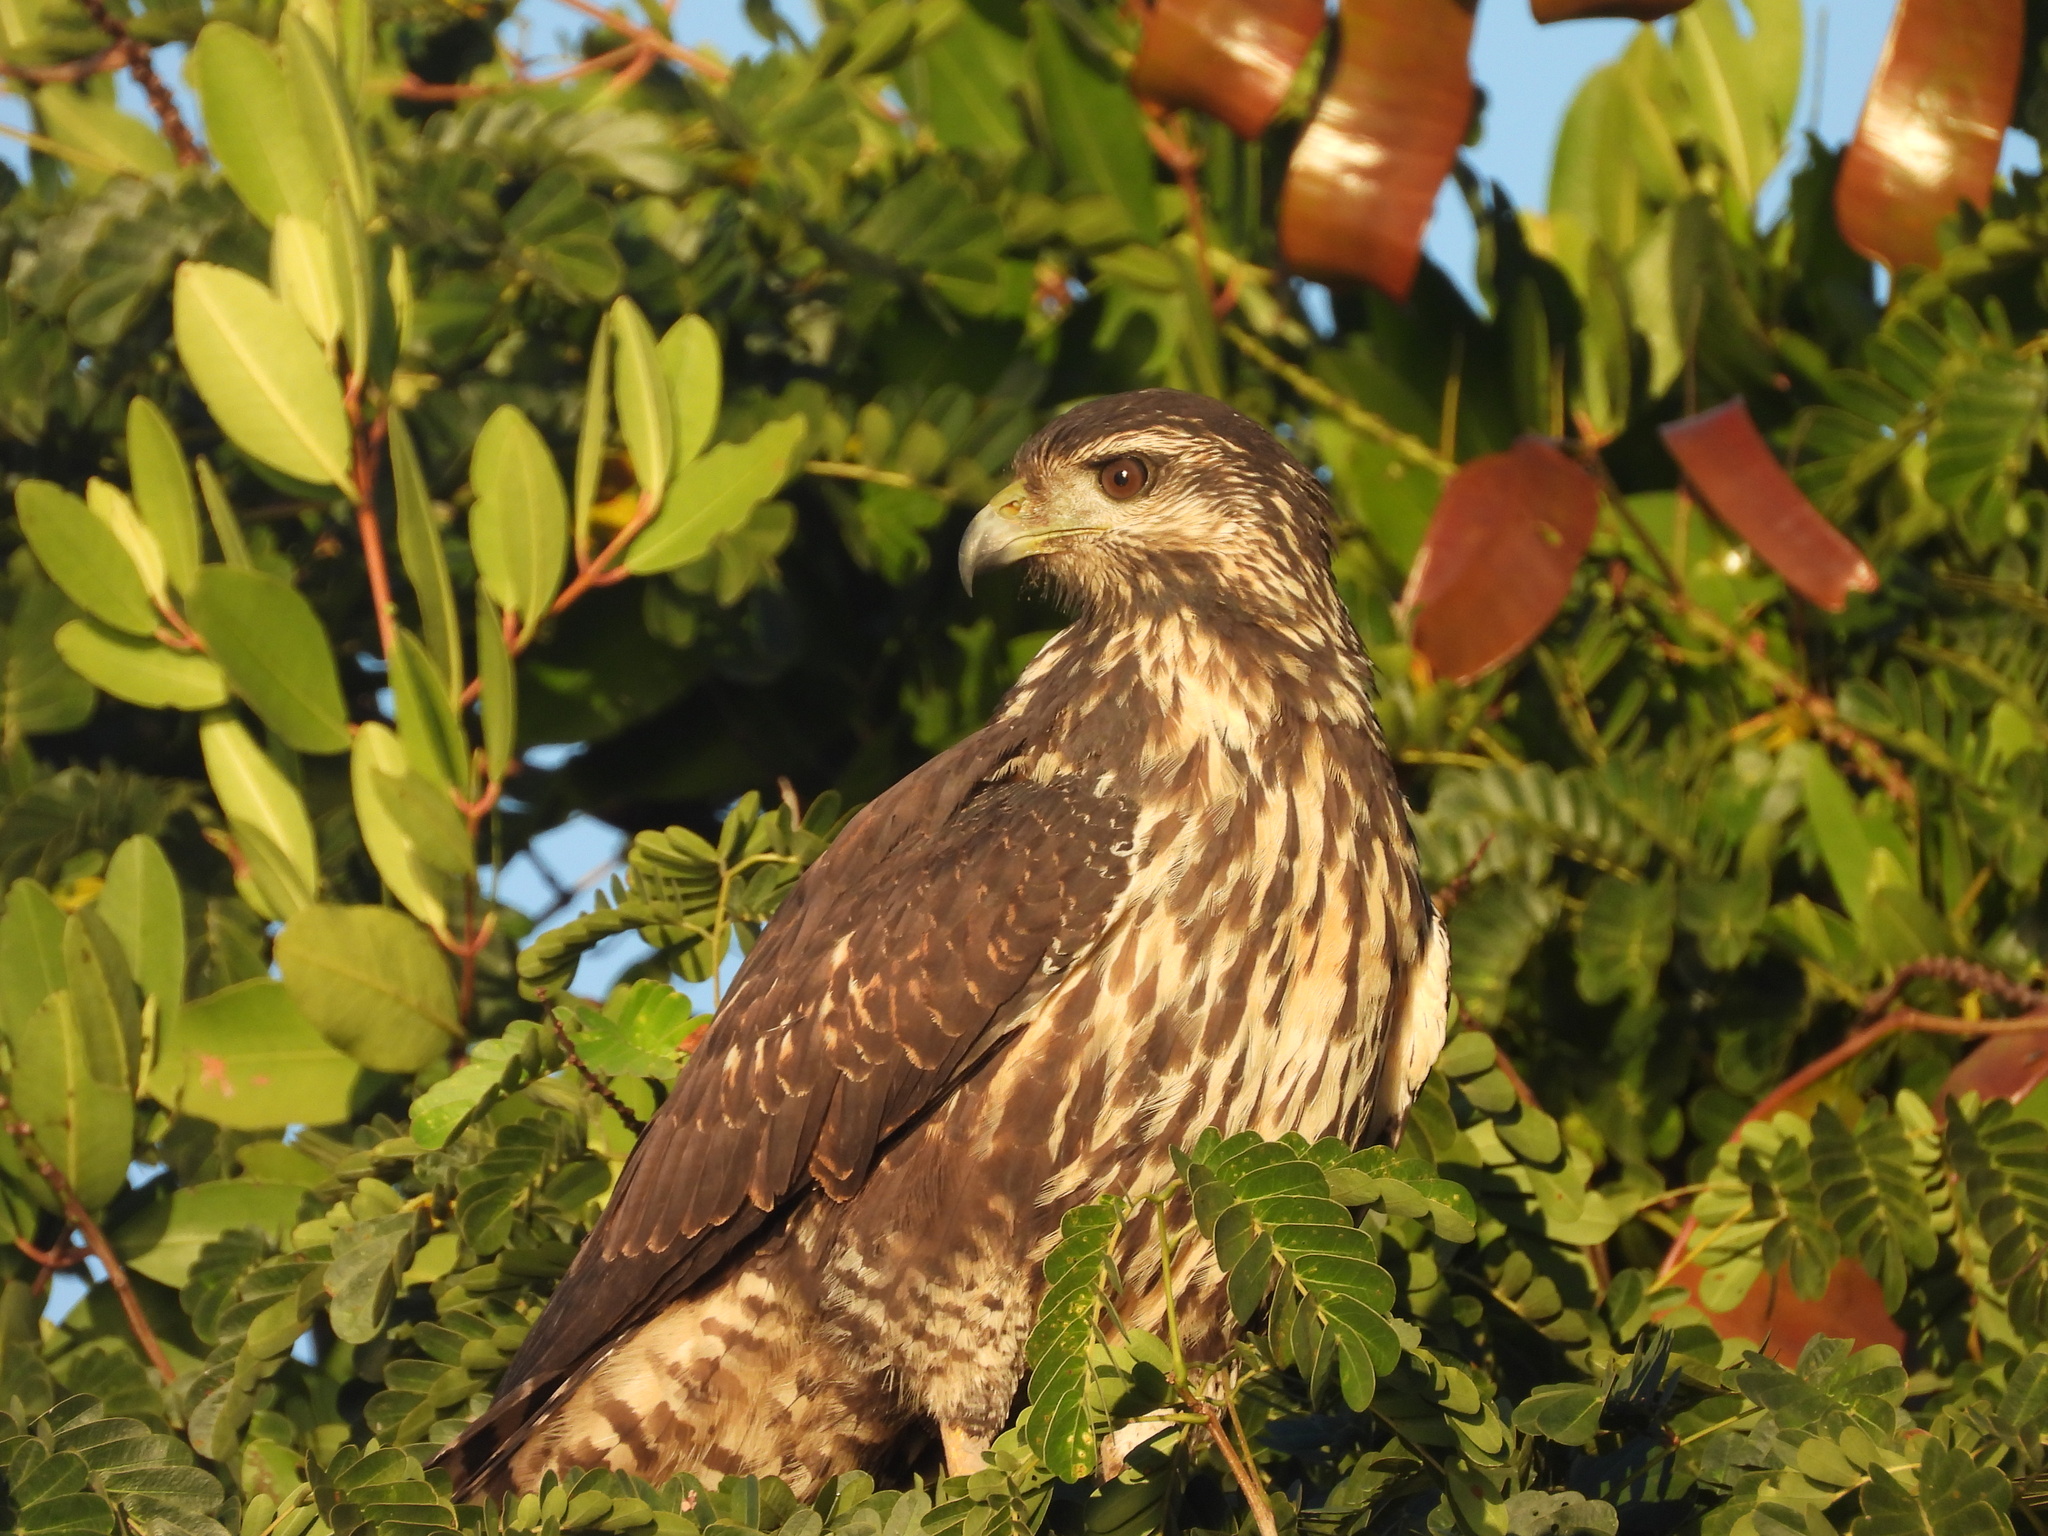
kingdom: Animalia
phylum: Chordata
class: Aves
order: Accipitriformes
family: Accipitridae
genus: Buteogallus
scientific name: Buteogallus anthracinus
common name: Common black hawk
